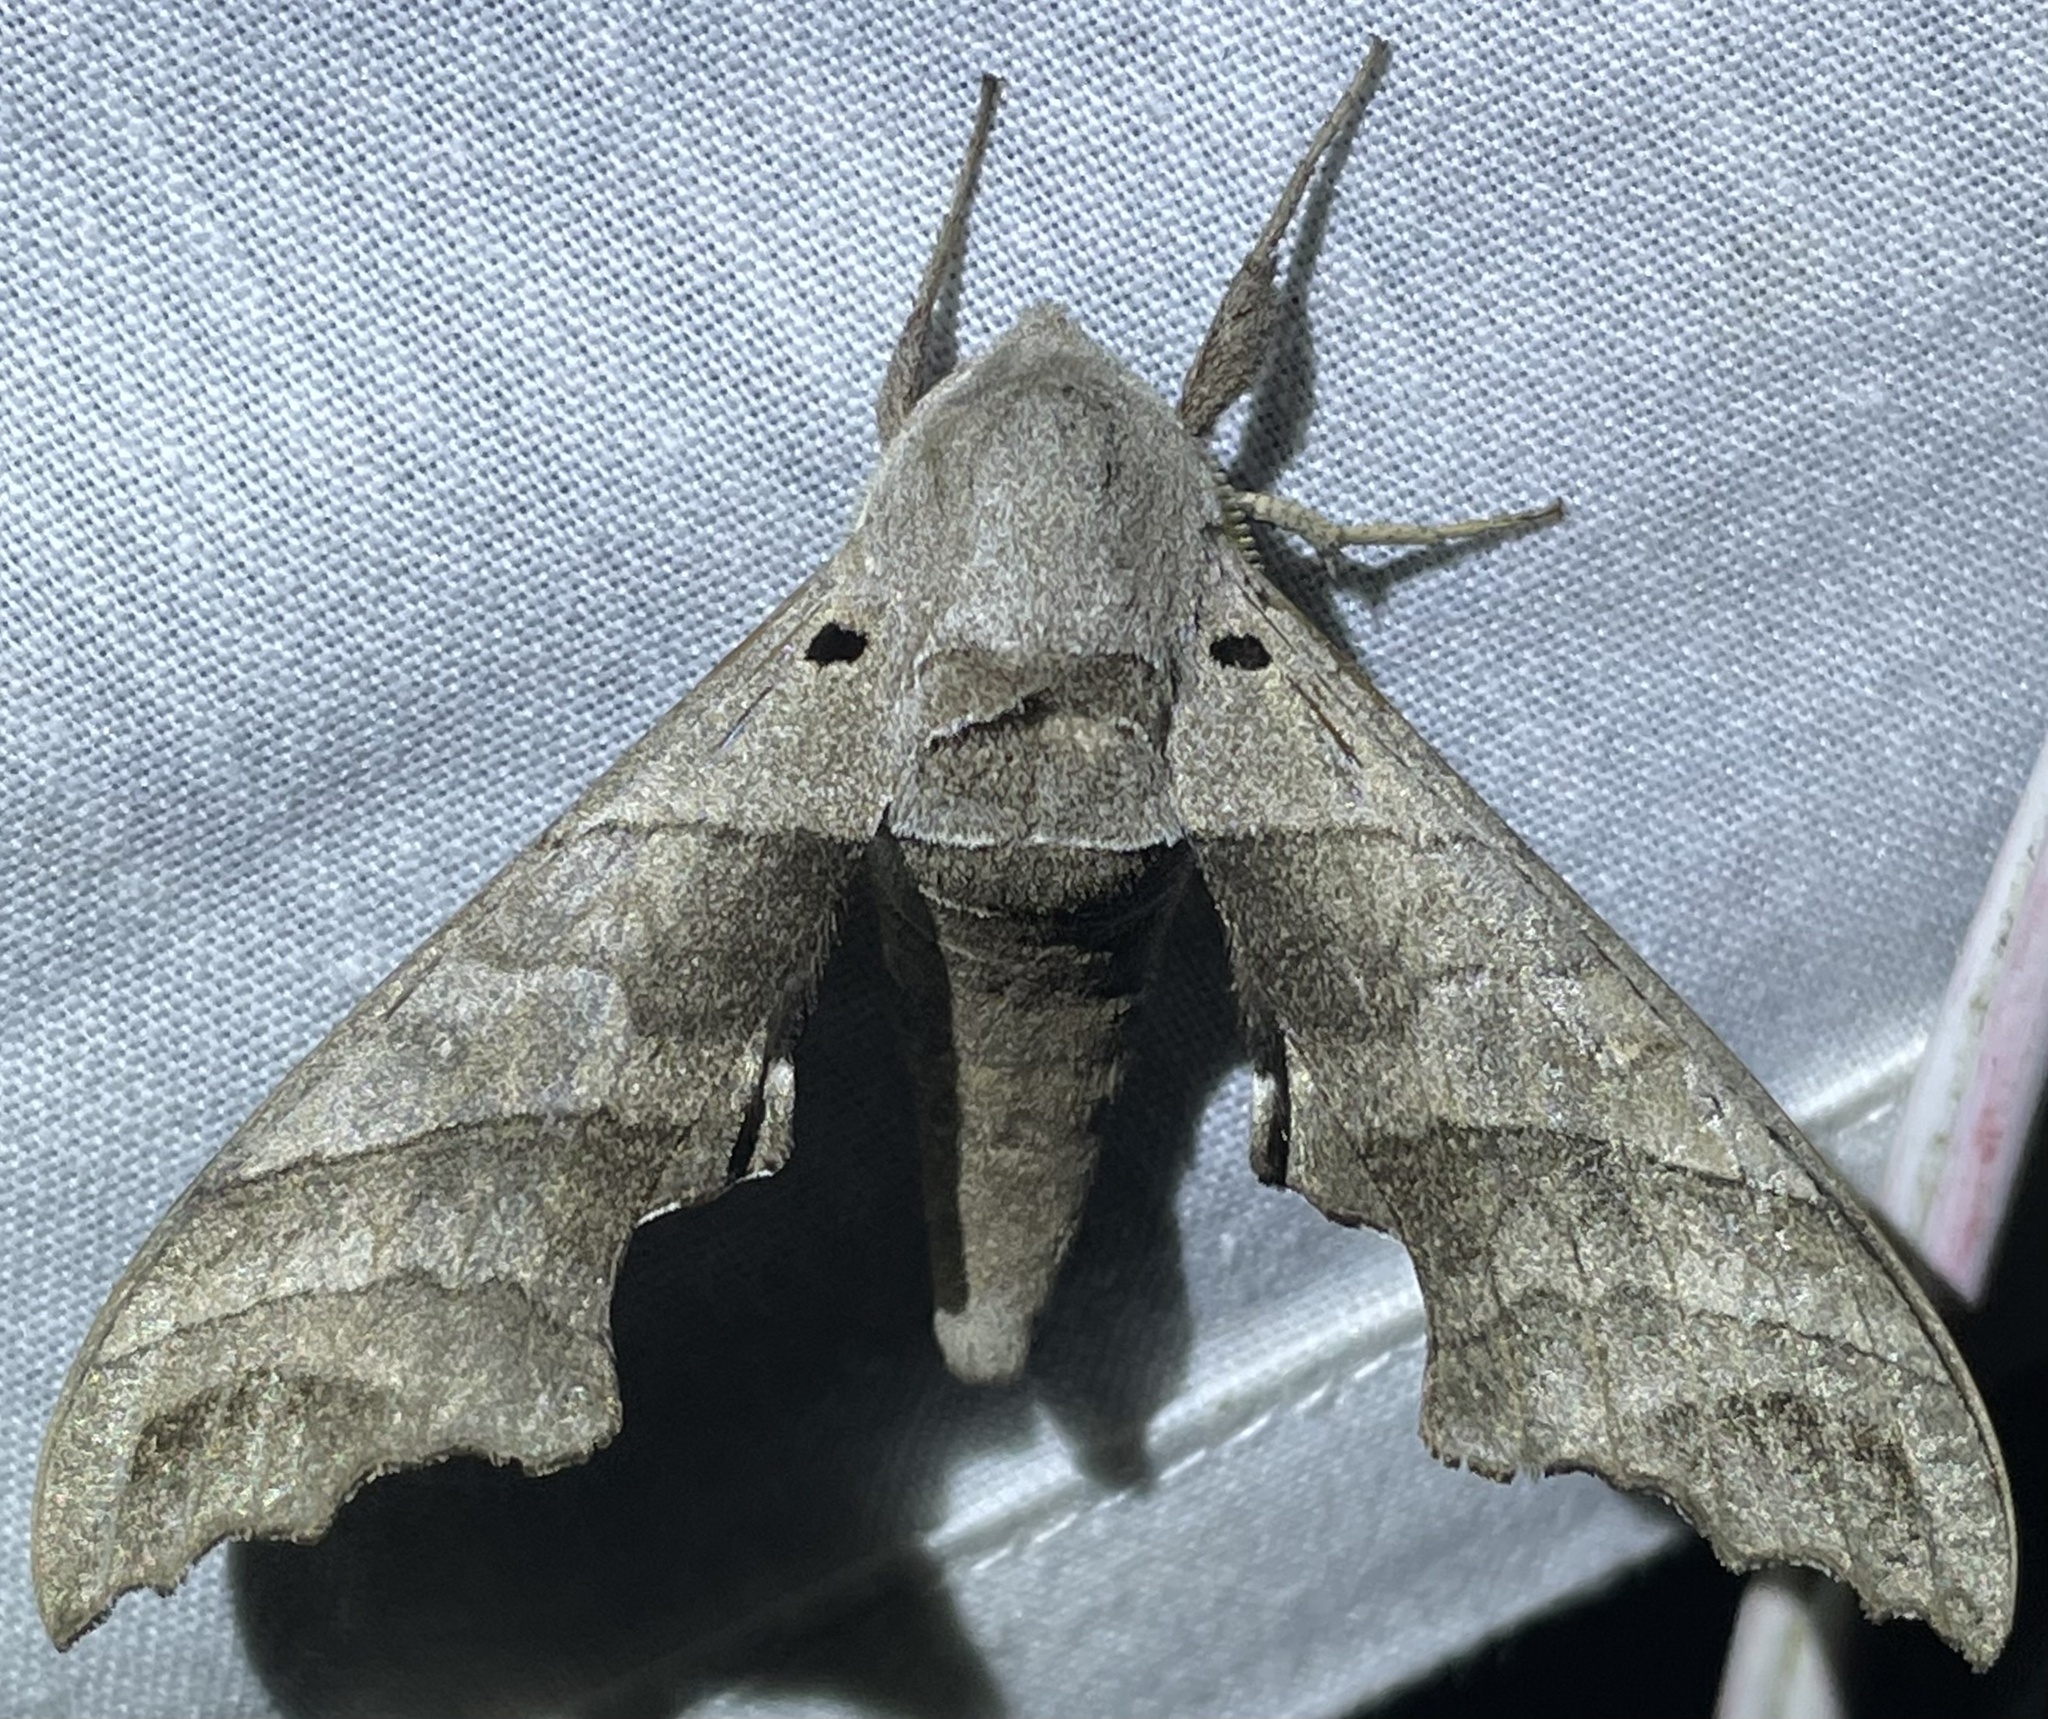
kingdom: Animalia
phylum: Arthropoda
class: Insecta
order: Lepidoptera
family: Sphingidae
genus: Polyptychoides
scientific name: Polyptychoides grayii
